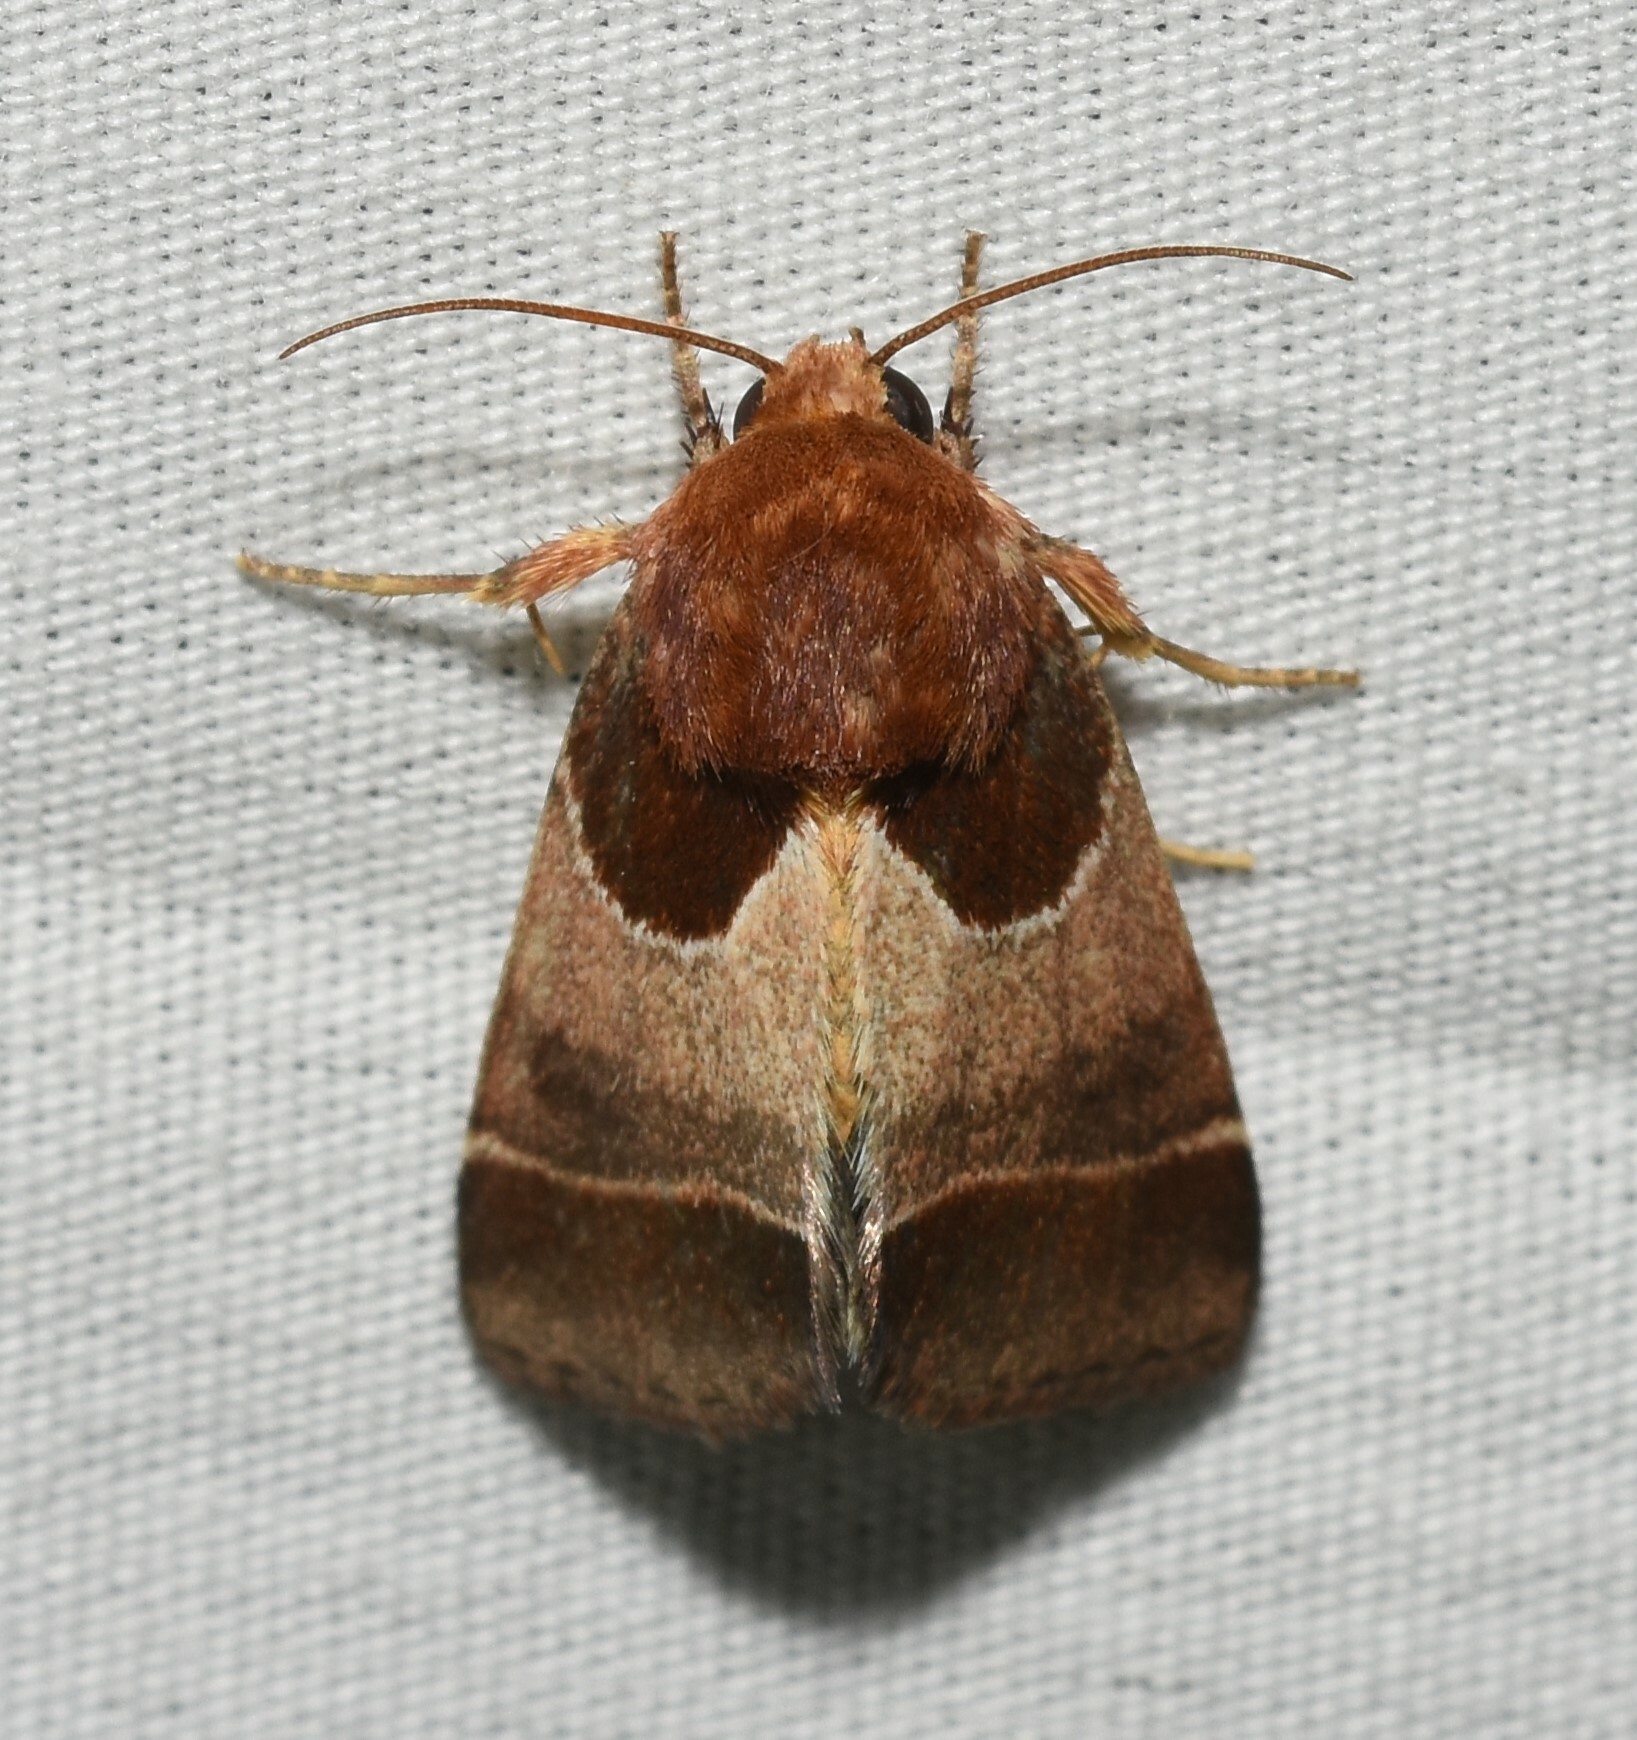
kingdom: Animalia
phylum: Arthropoda
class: Insecta
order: Lepidoptera
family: Noctuidae
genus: Schinia
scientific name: Schinia arcigera
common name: Arcigera flower moth
